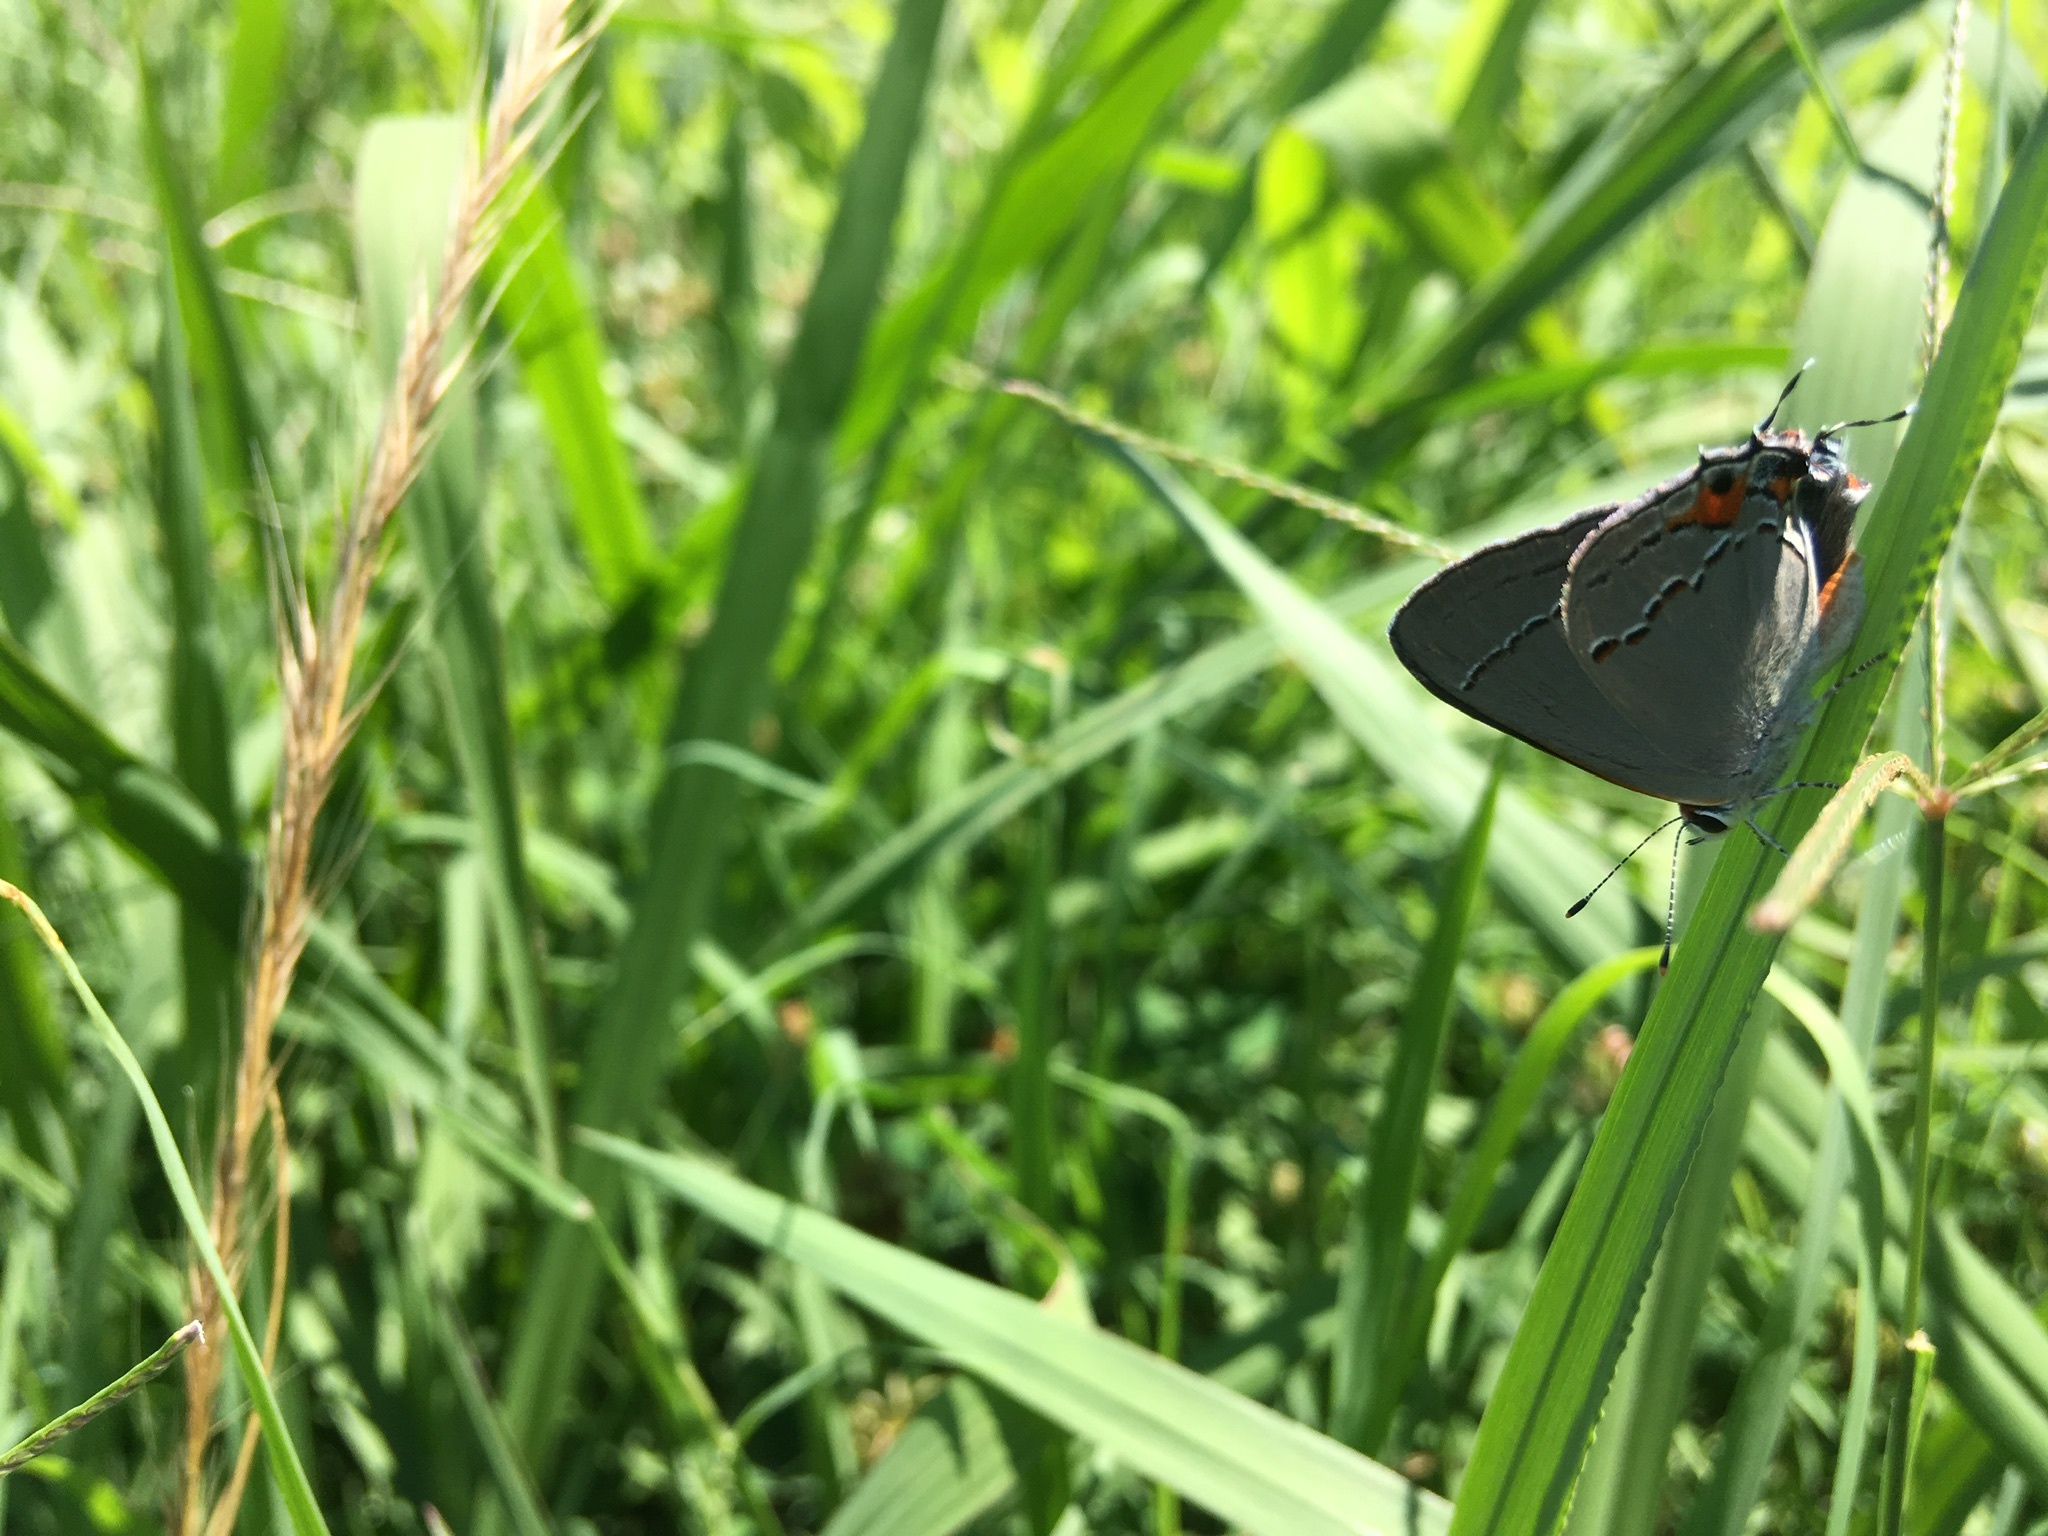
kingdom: Animalia
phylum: Arthropoda
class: Insecta
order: Lepidoptera
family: Lycaenidae
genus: Strymon
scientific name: Strymon melinus
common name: Gray hairstreak
